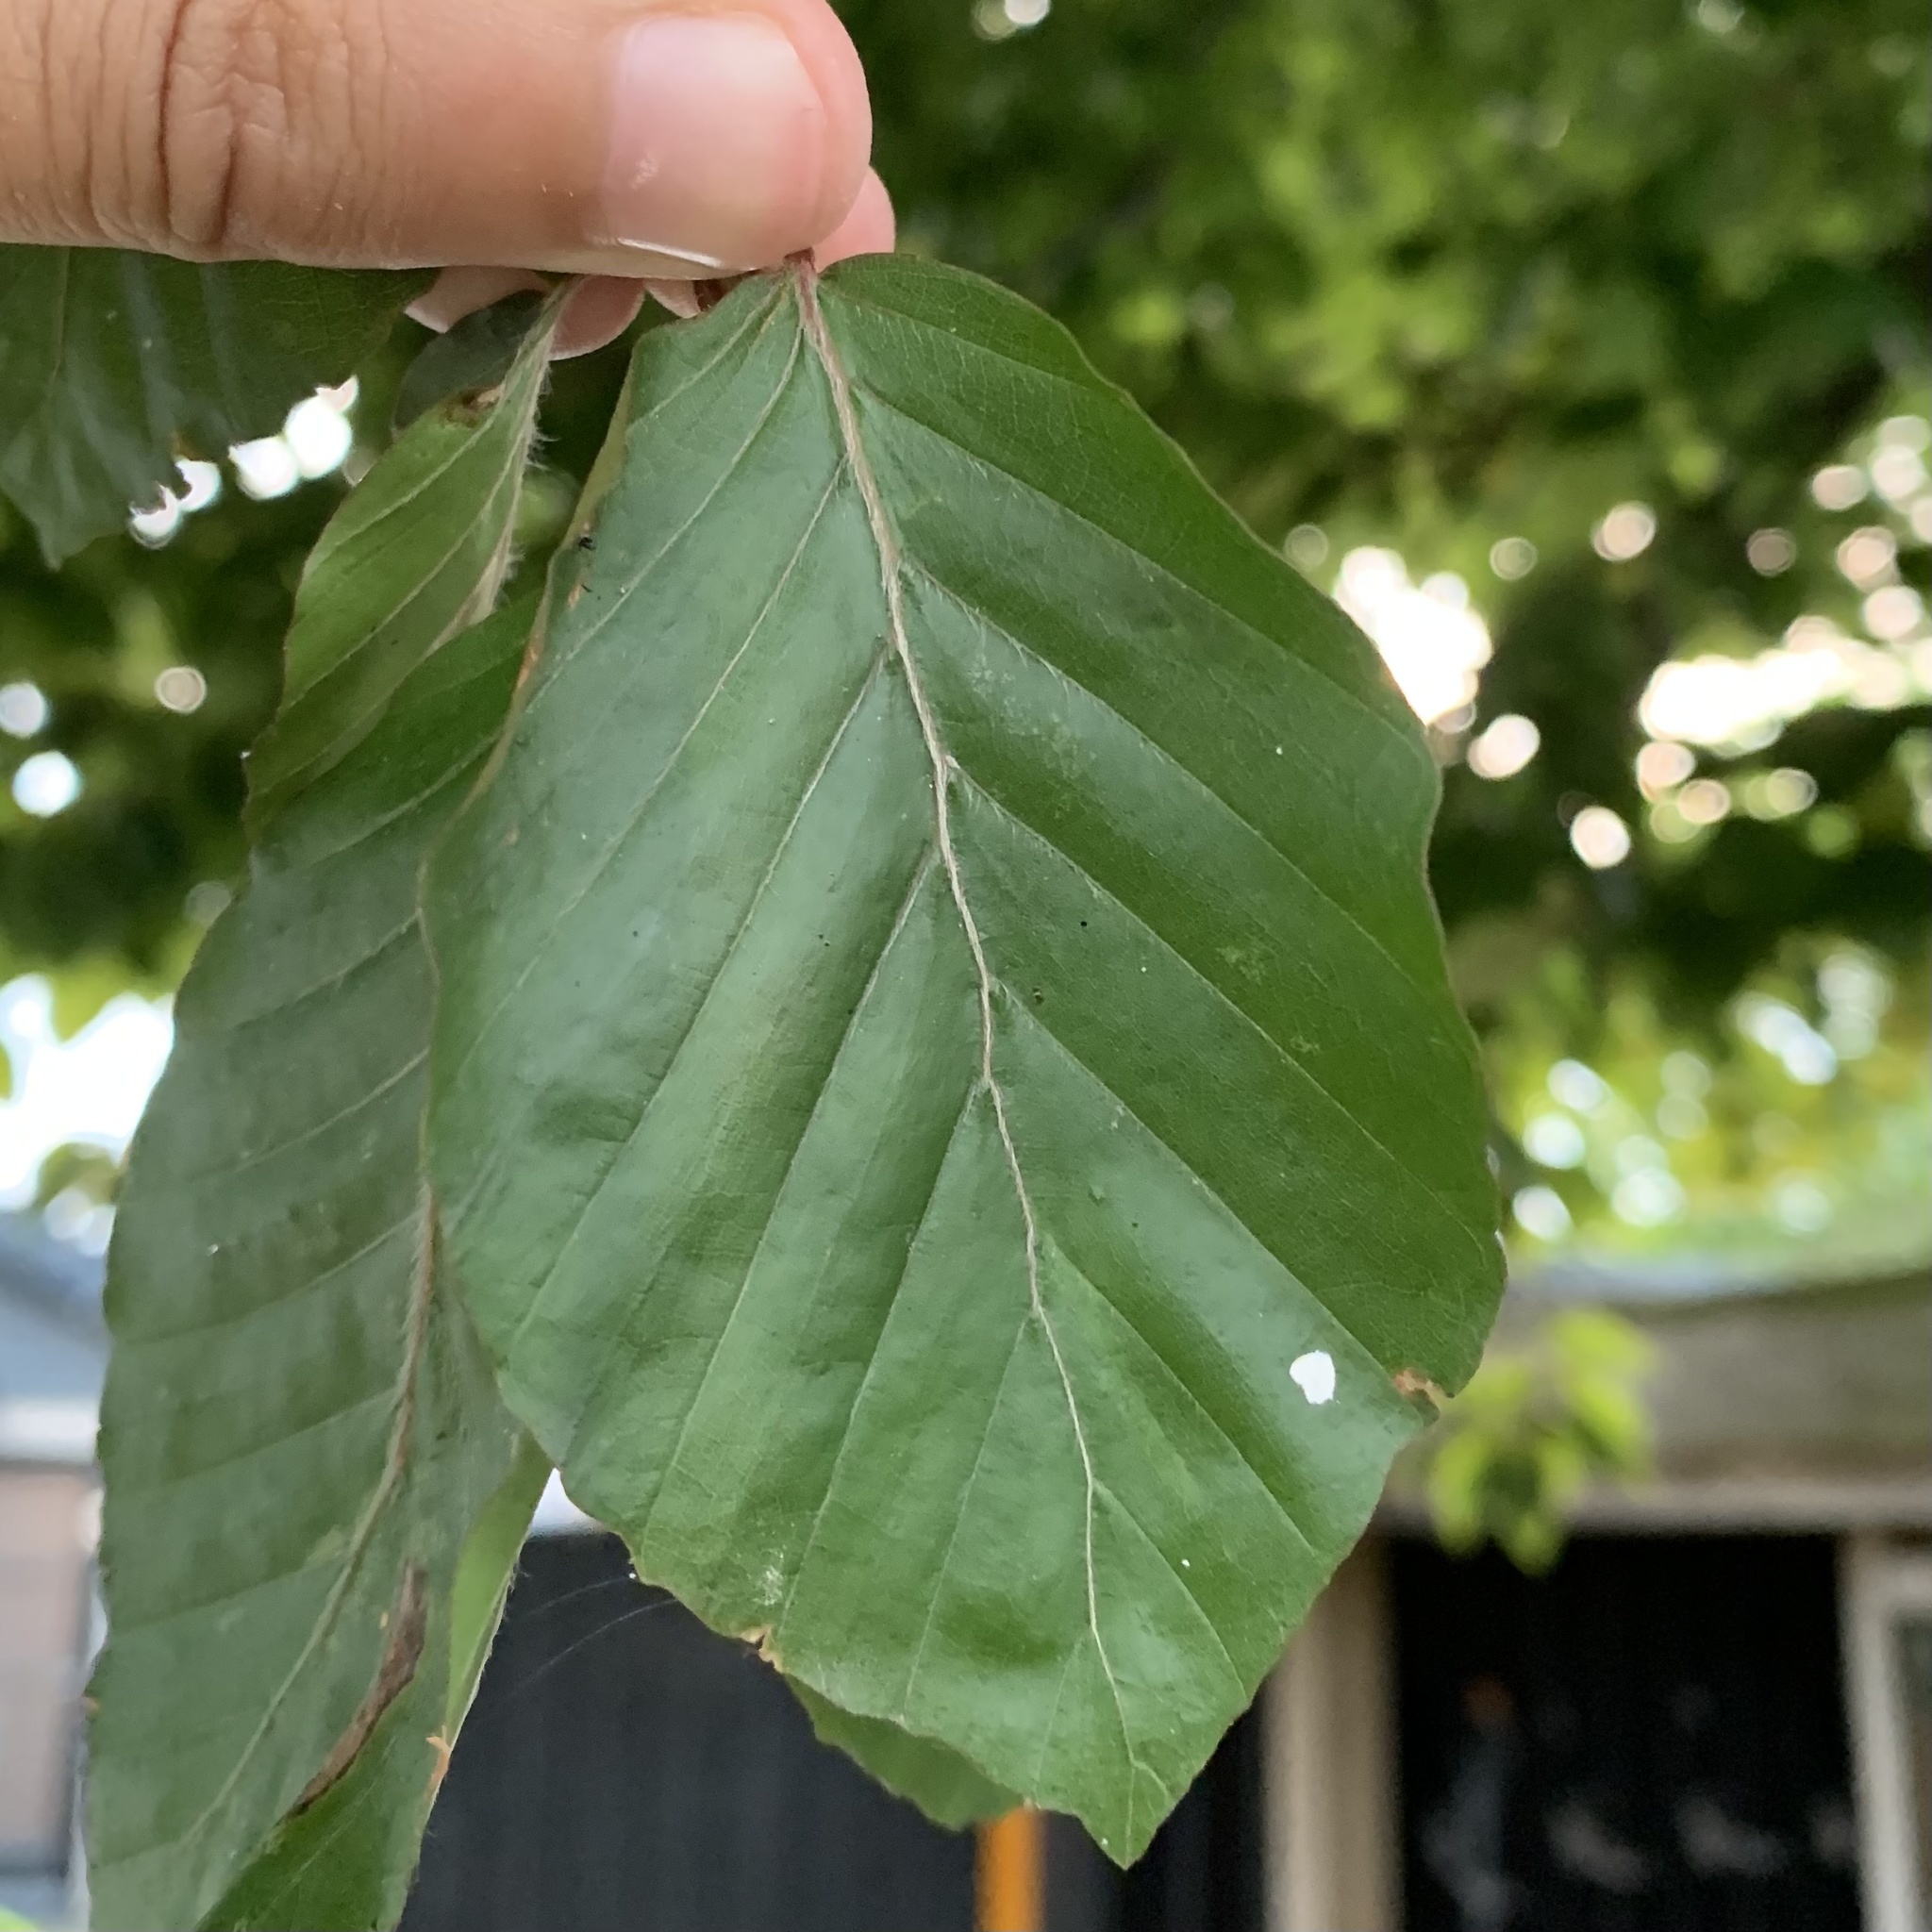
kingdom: Plantae
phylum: Tracheophyta
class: Magnoliopsida
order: Fagales
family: Fagaceae
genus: Fagus
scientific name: Fagus sylvatica
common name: Beech
